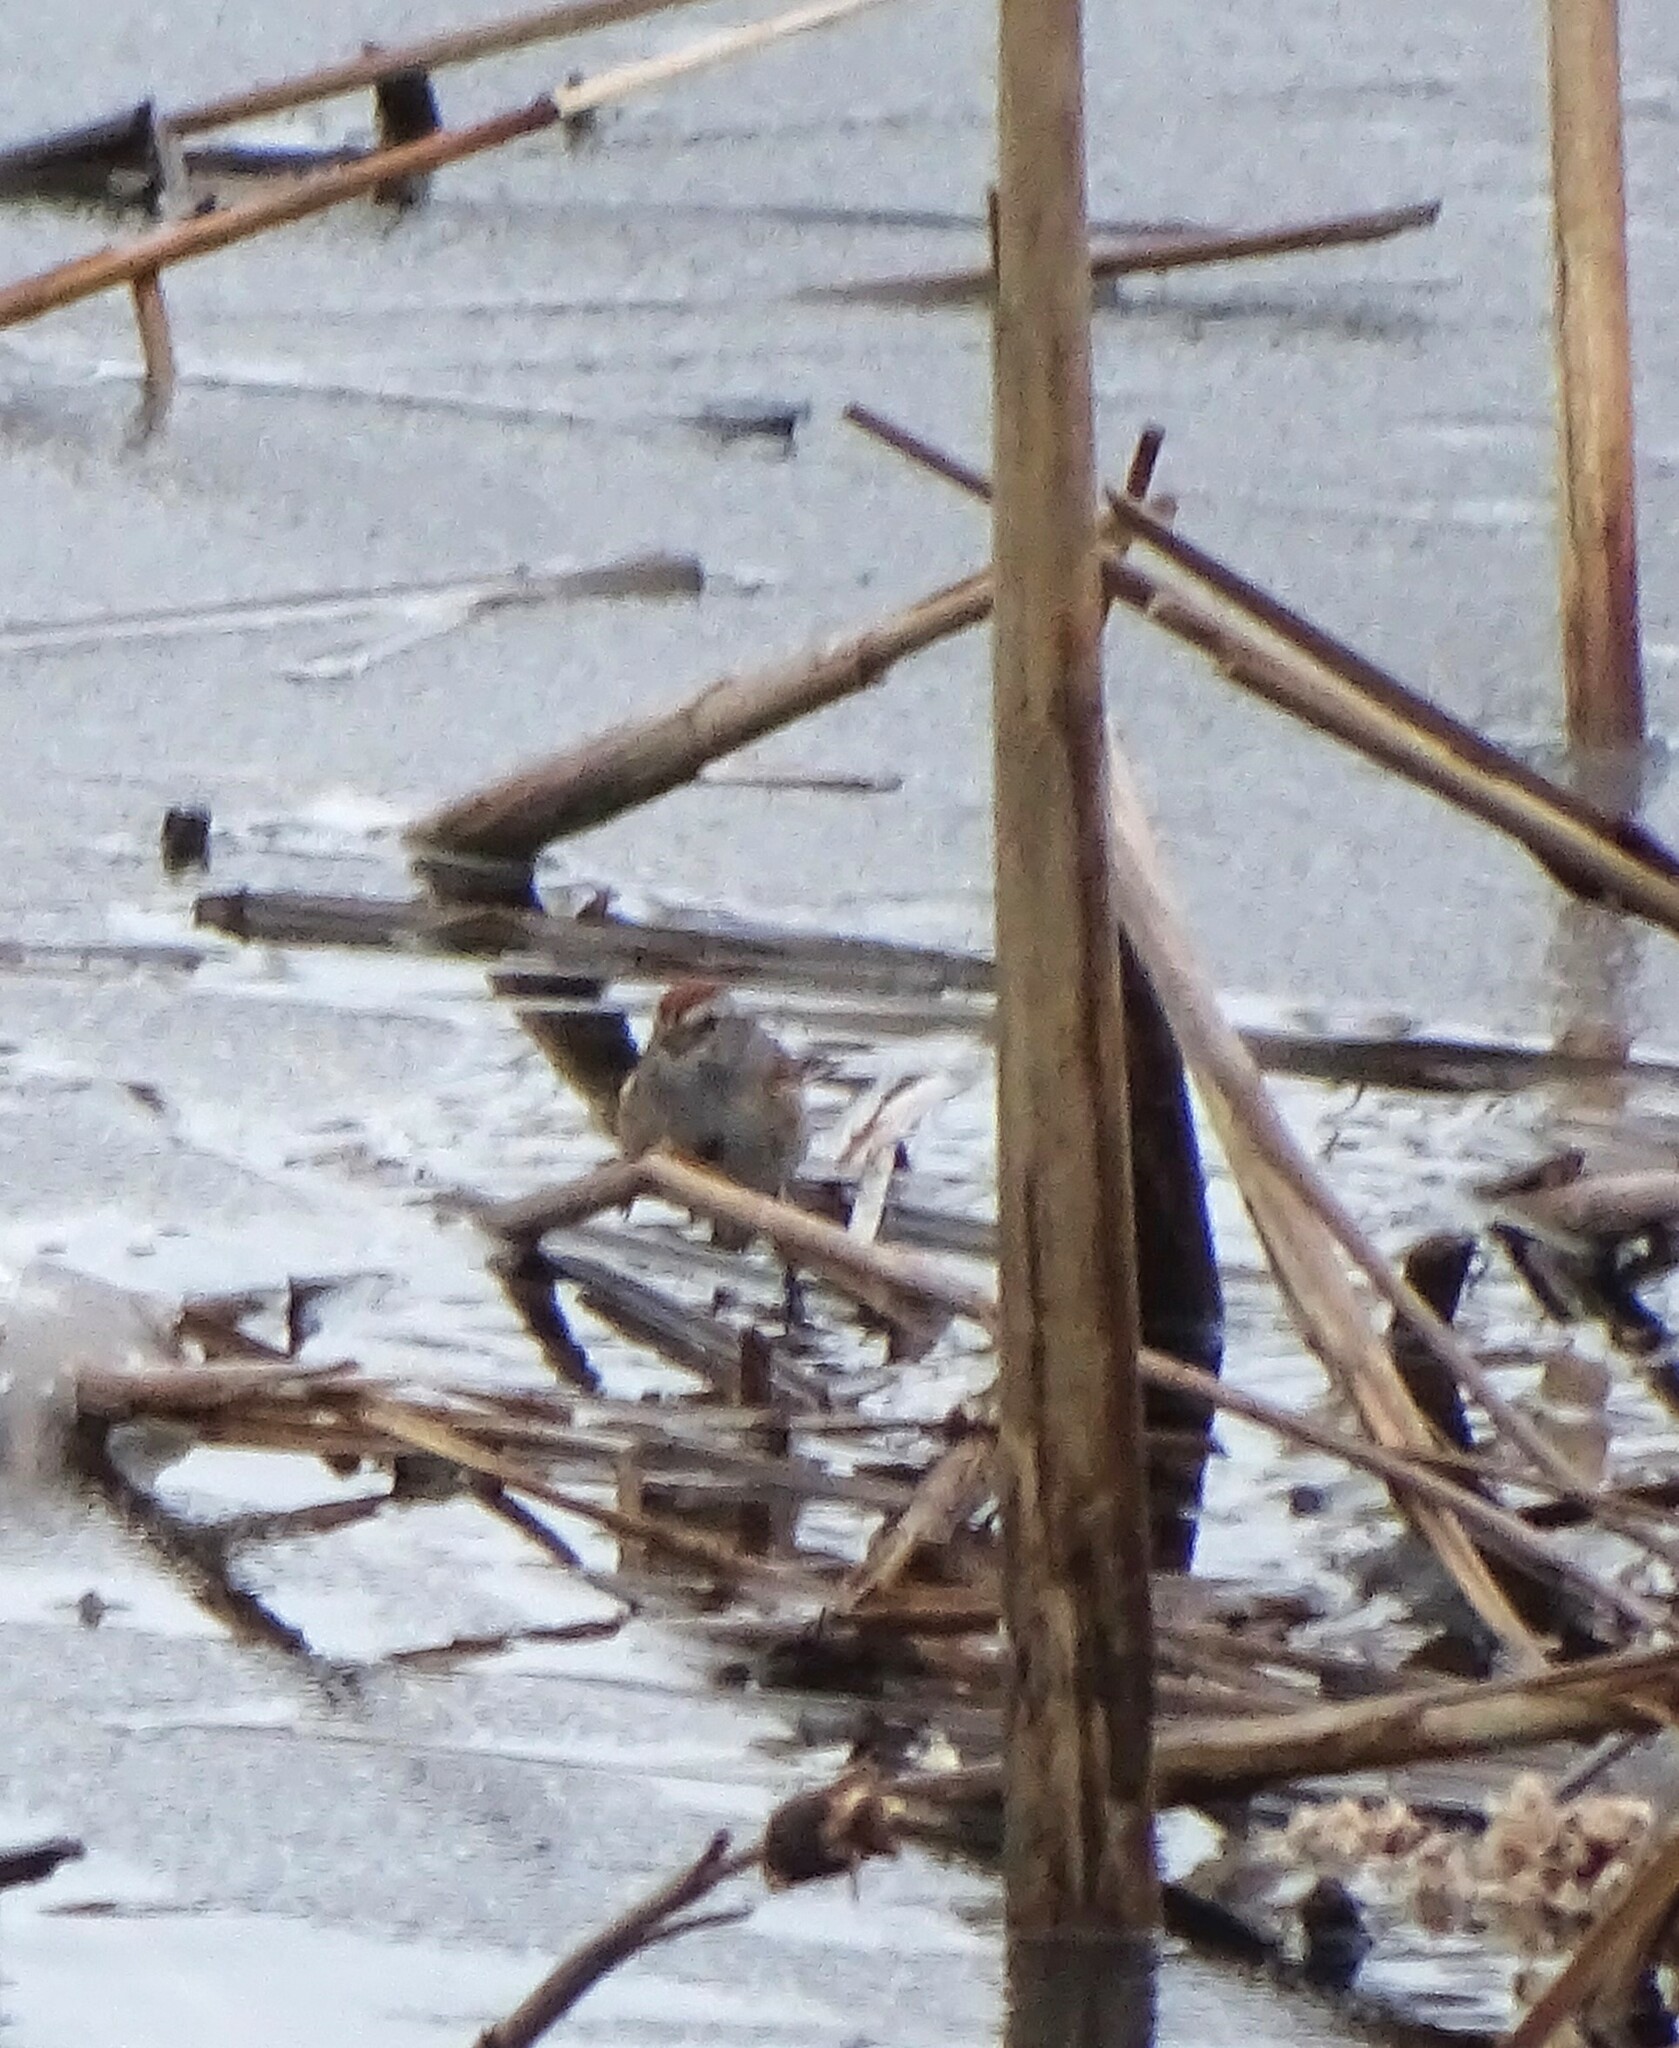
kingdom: Animalia
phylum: Chordata
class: Aves
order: Passeriformes
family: Passerellidae
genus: Spizelloides
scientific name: Spizelloides arborea
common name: American tree sparrow
